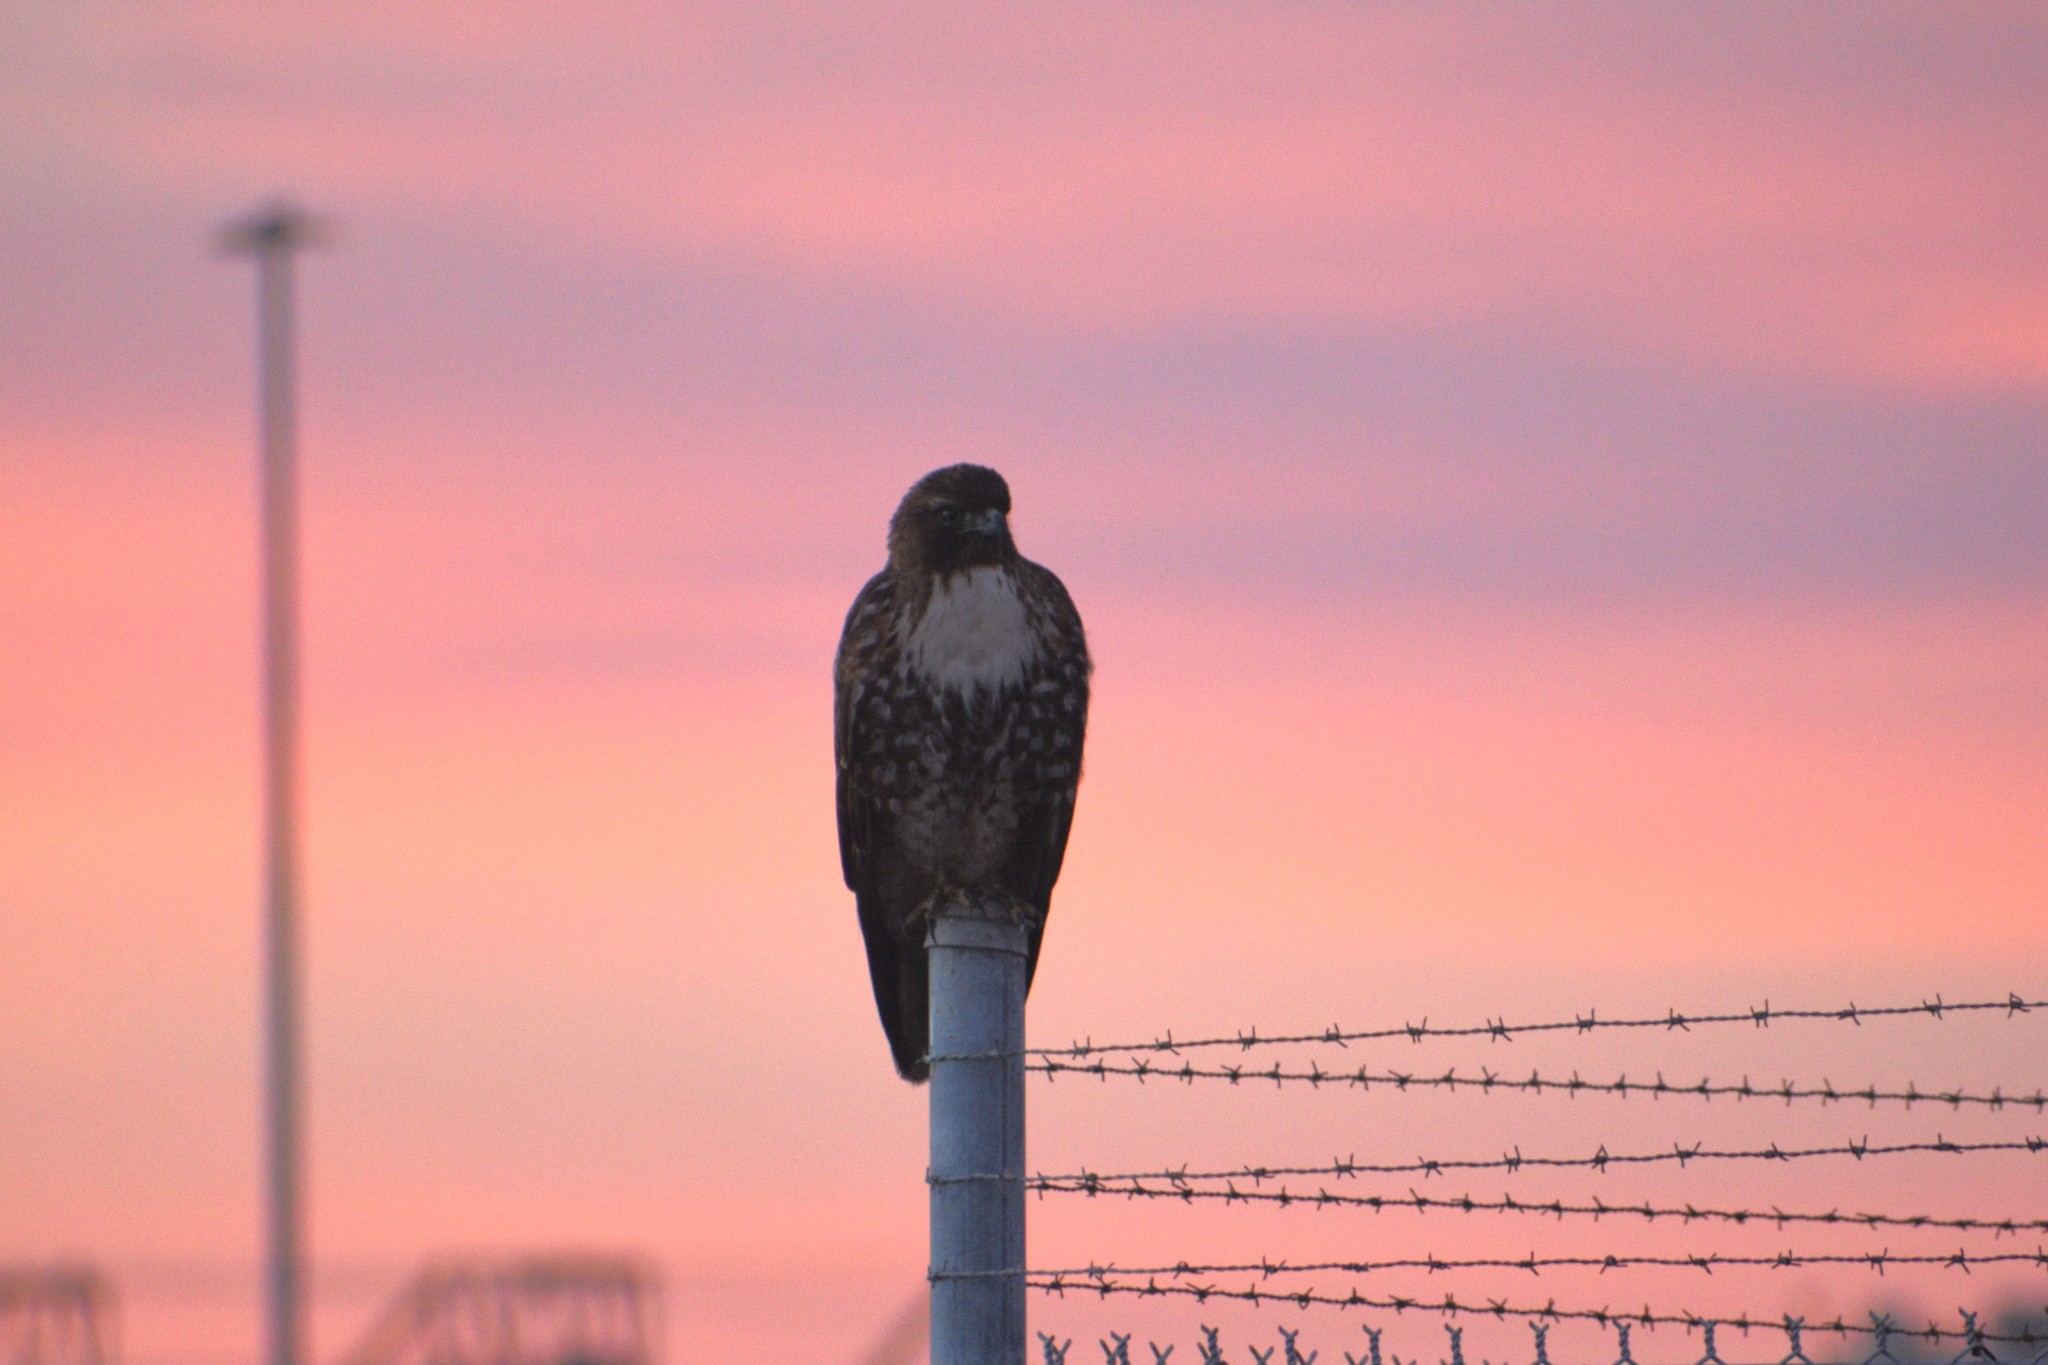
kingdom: Animalia
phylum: Chordata
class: Aves
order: Accipitriformes
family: Accipitridae
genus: Buteo
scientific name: Buteo jamaicensis
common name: Red-tailed hawk
